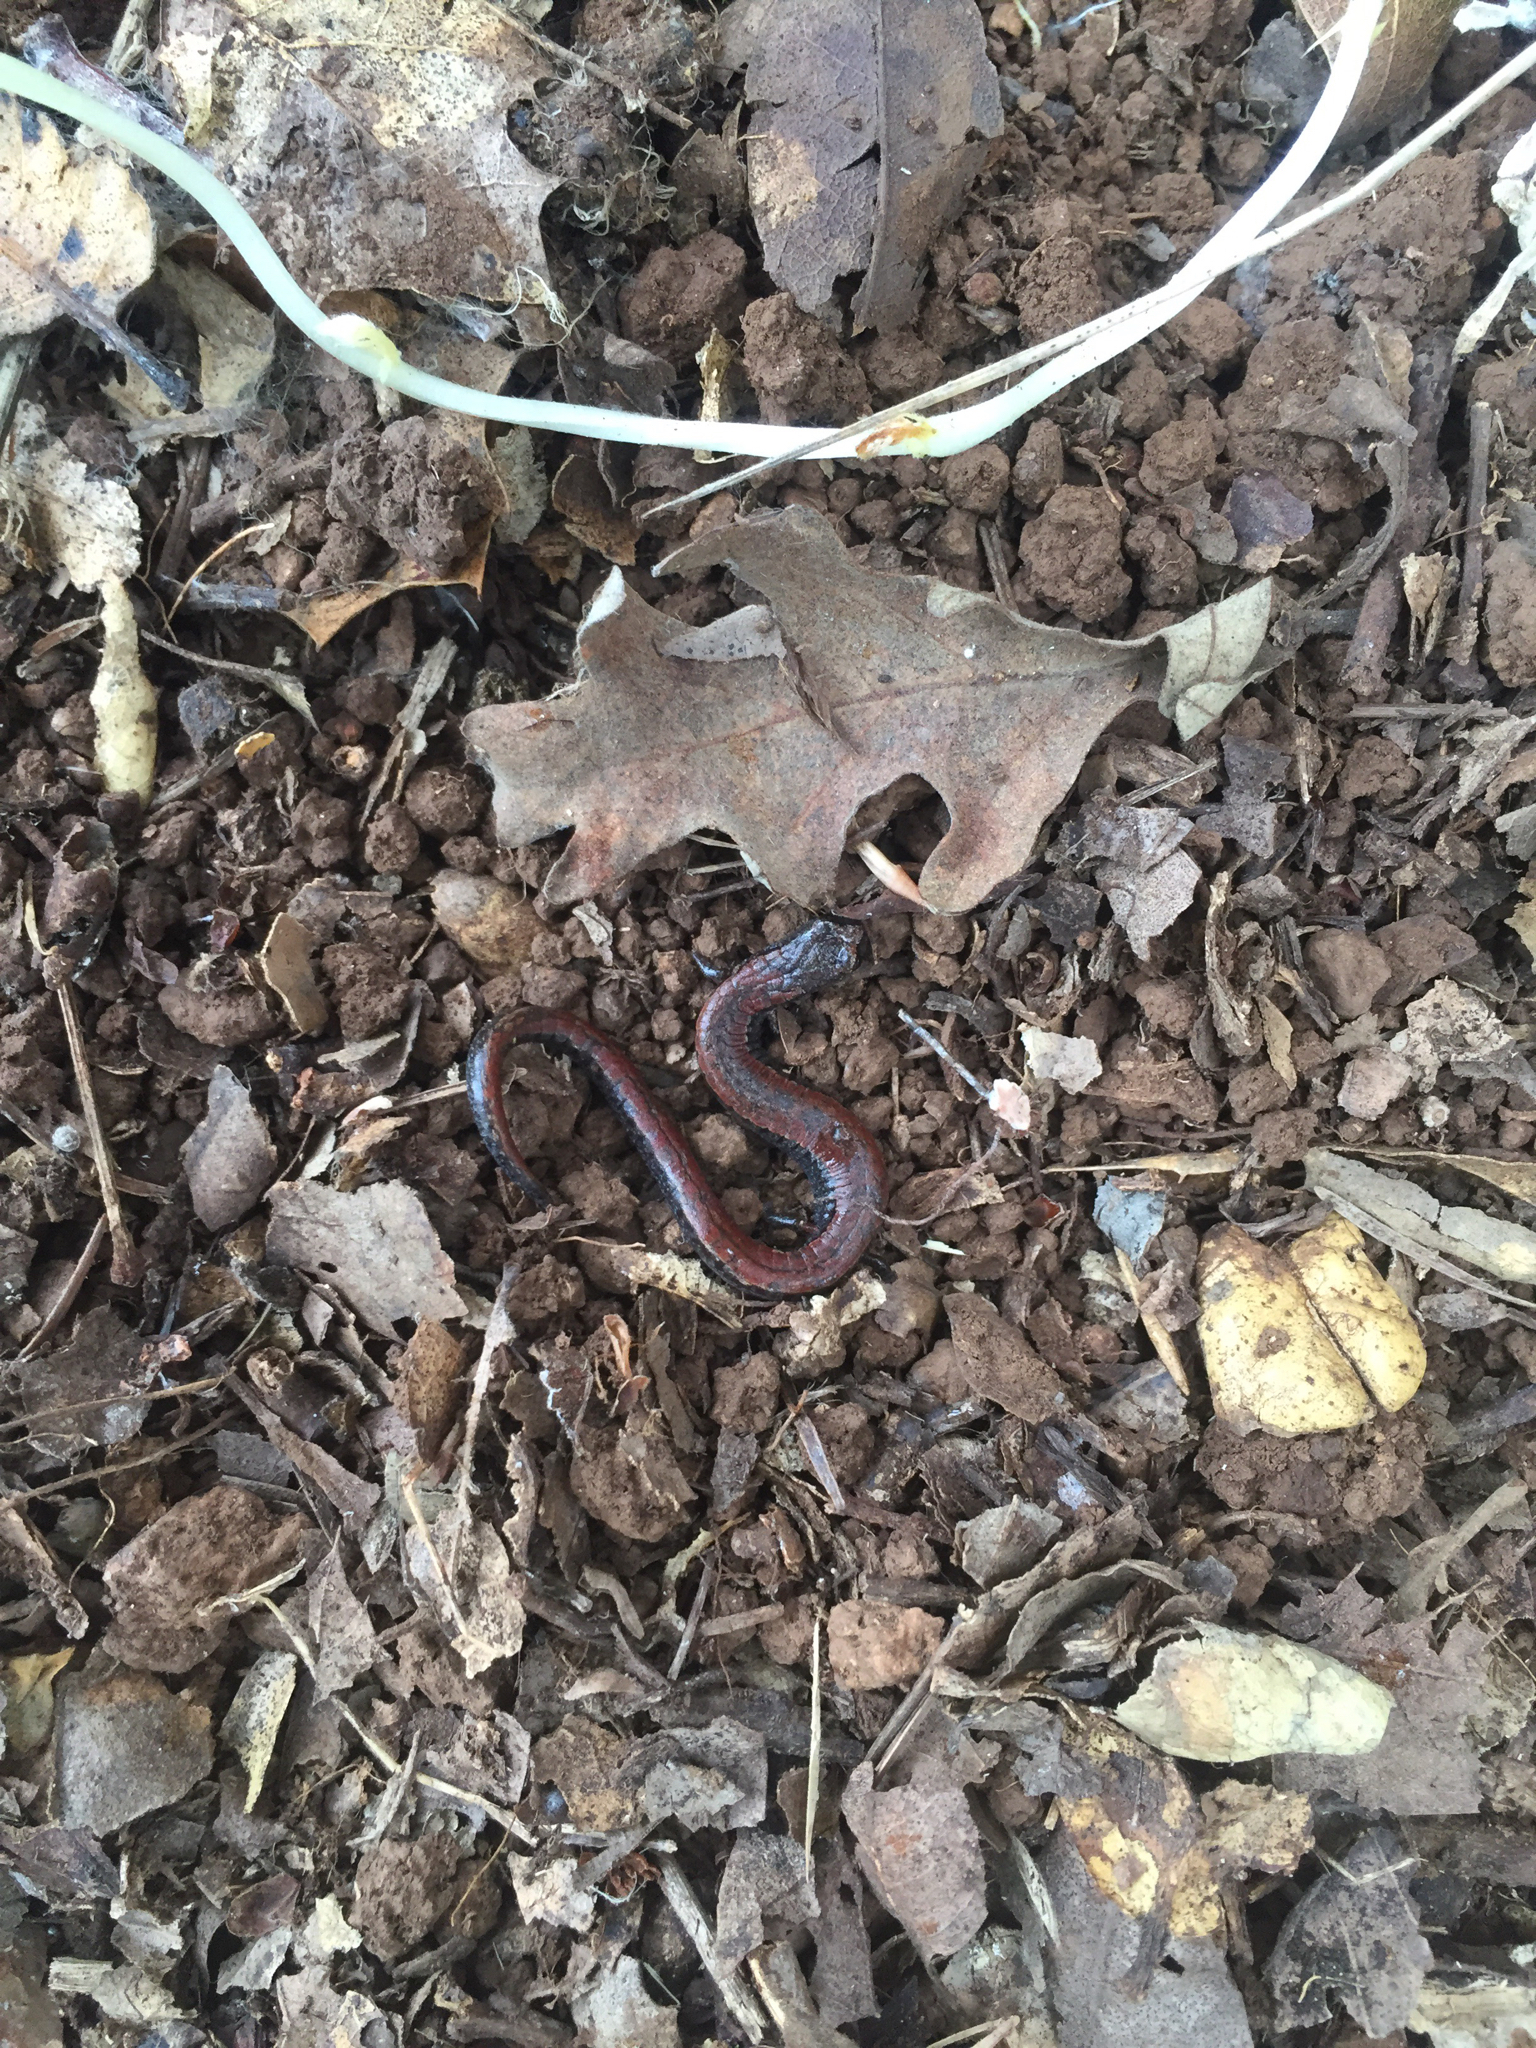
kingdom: Animalia
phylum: Chordata
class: Amphibia
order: Caudata
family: Plethodontidae
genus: Batrachoseps
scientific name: Batrachoseps attenuatus
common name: California slender salamander
